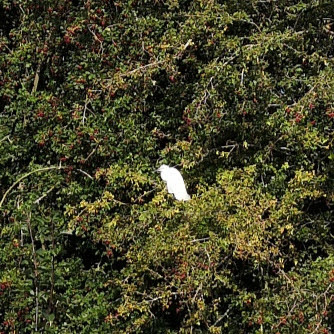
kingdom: Animalia
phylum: Chordata
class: Aves
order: Pelecaniformes
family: Ardeidae
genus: Egretta
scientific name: Egretta garzetta
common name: Little egret
